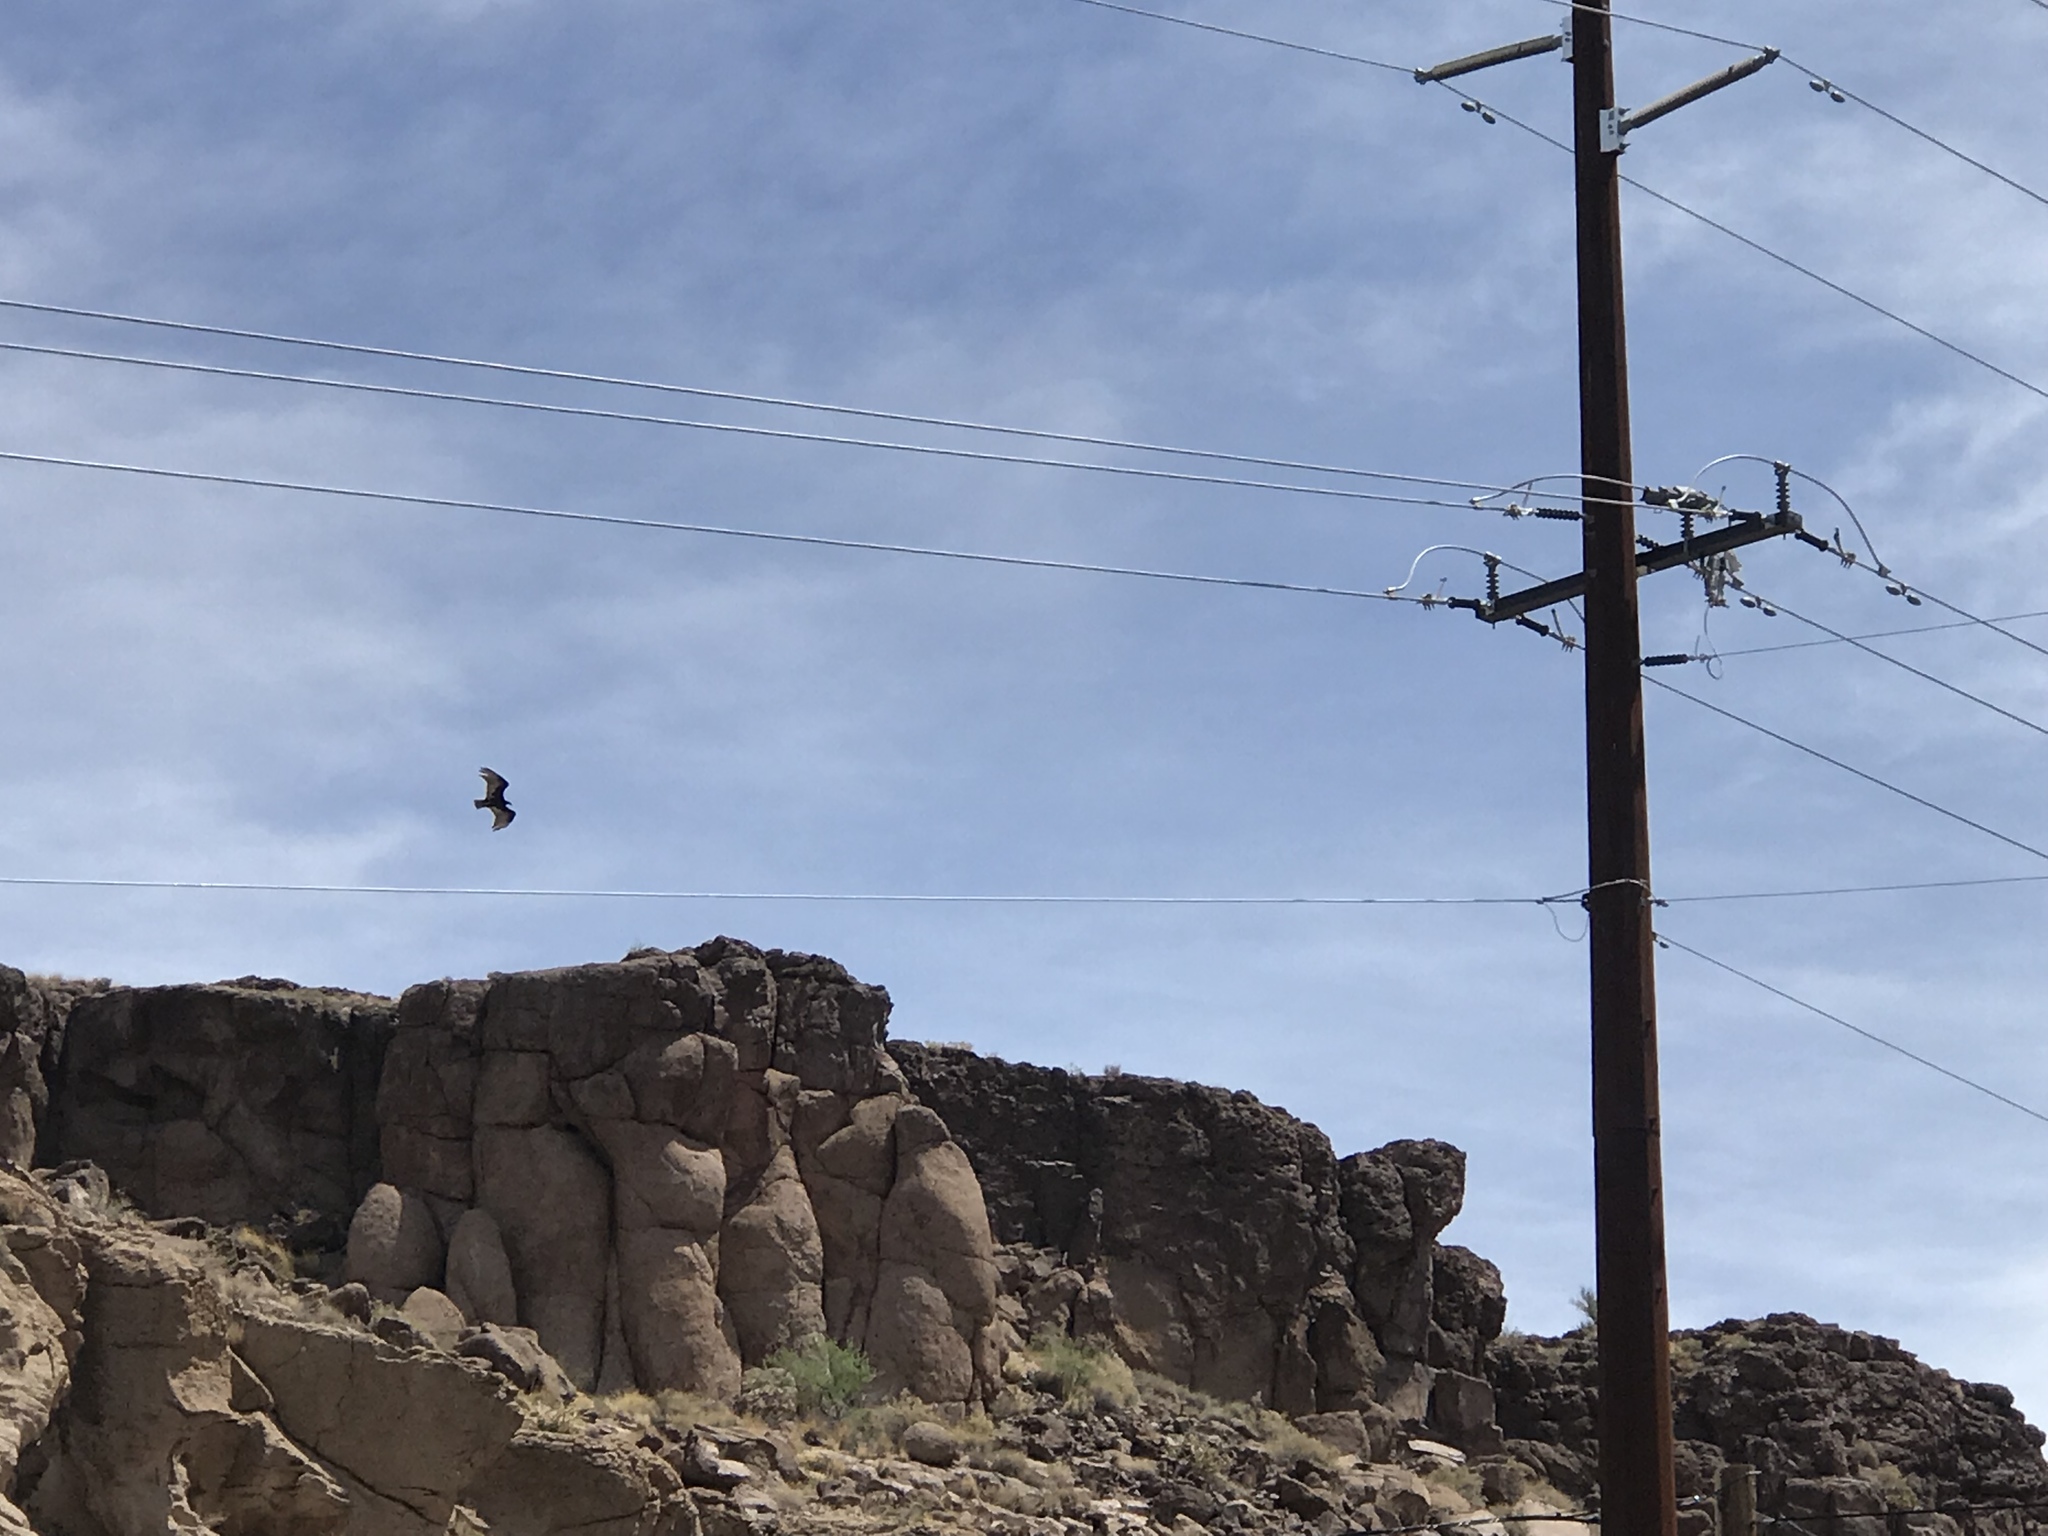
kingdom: Animalia
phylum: Chordata
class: Aves
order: Accipitriformes
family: Cathartidae
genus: Cathartes
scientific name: Cathartes aura
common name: Turkey vulture
